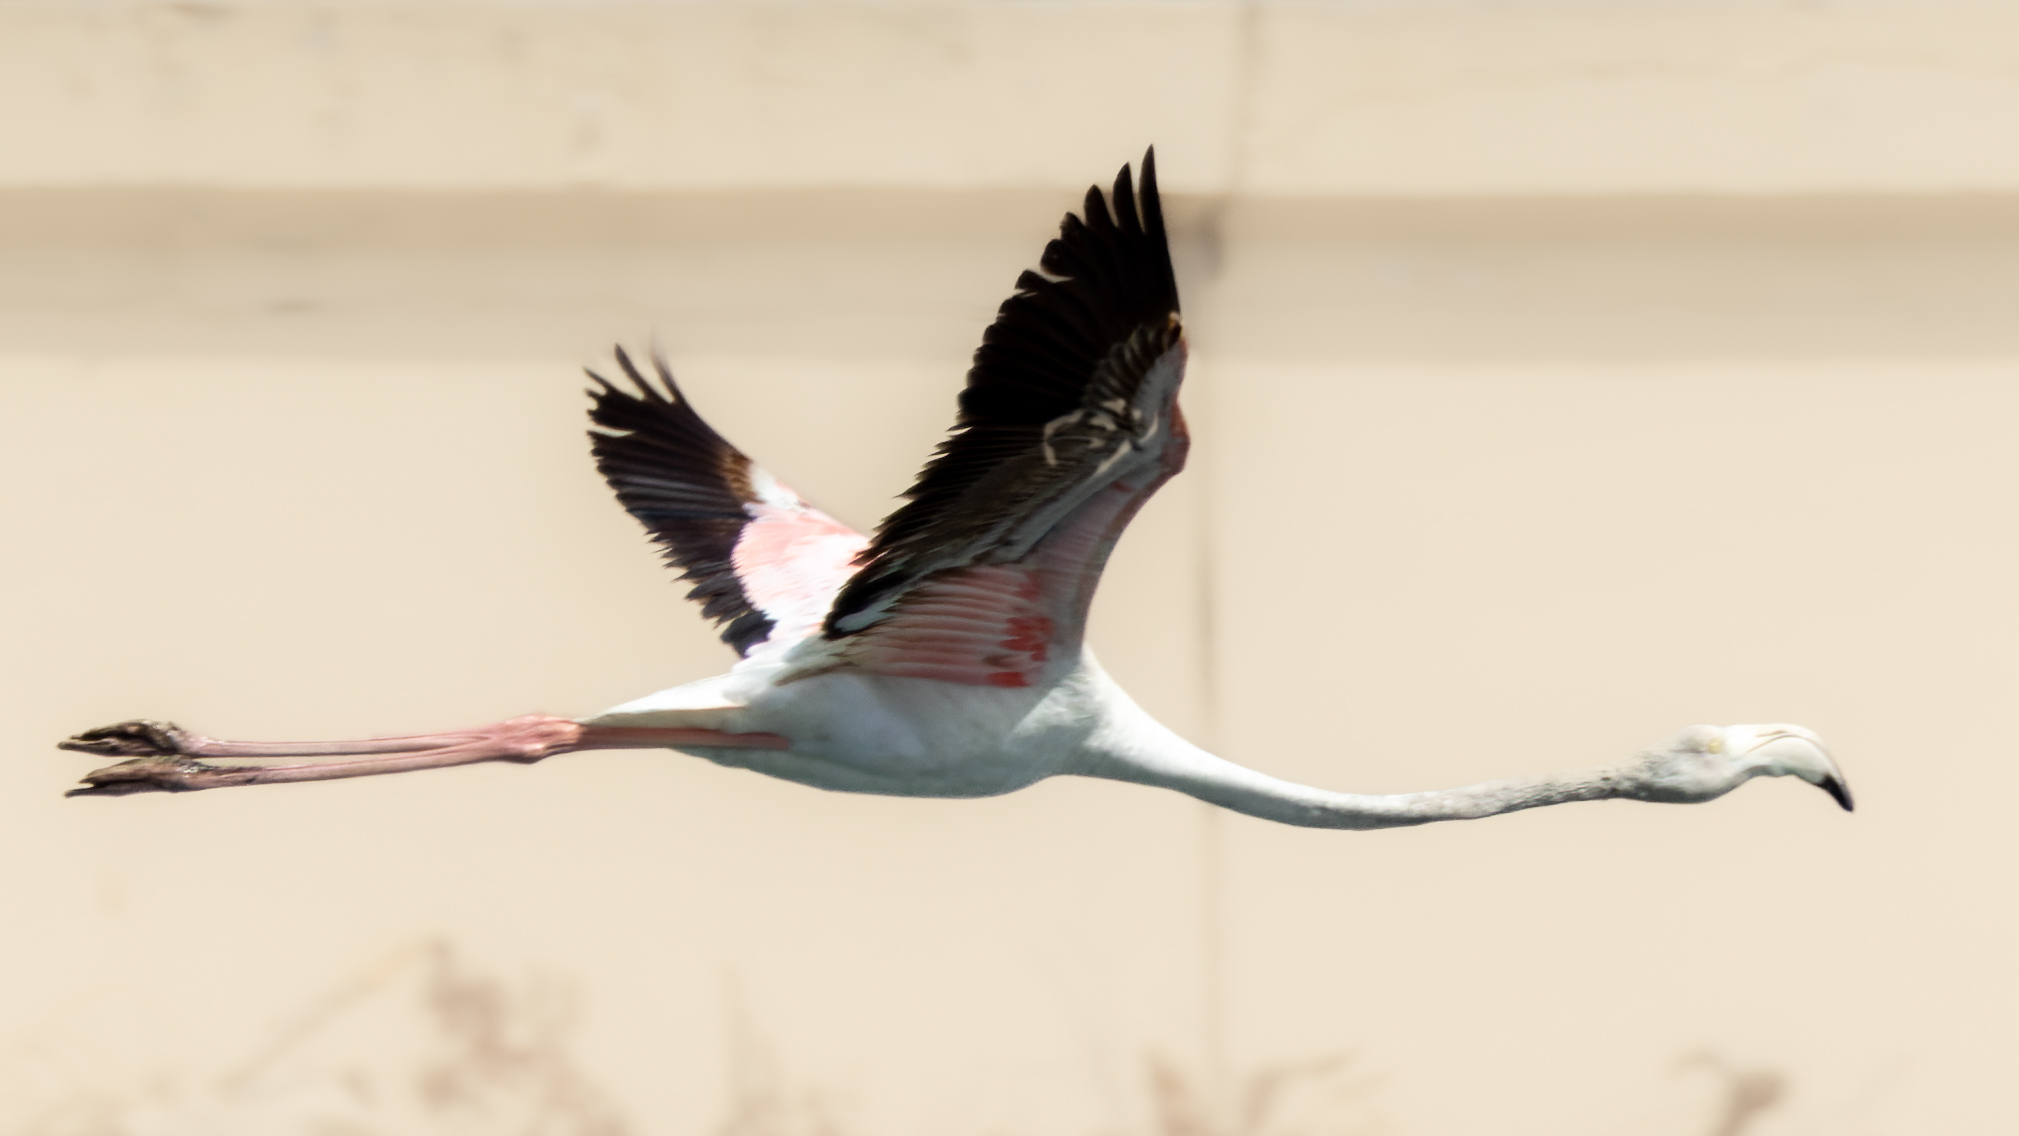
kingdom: Animalia
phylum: Chordata
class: Aves
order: Phoenicopteriformes
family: Phoenicopteridae
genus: Phoenicopterus
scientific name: Phoenicopterus roseus
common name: Greater flamingo
